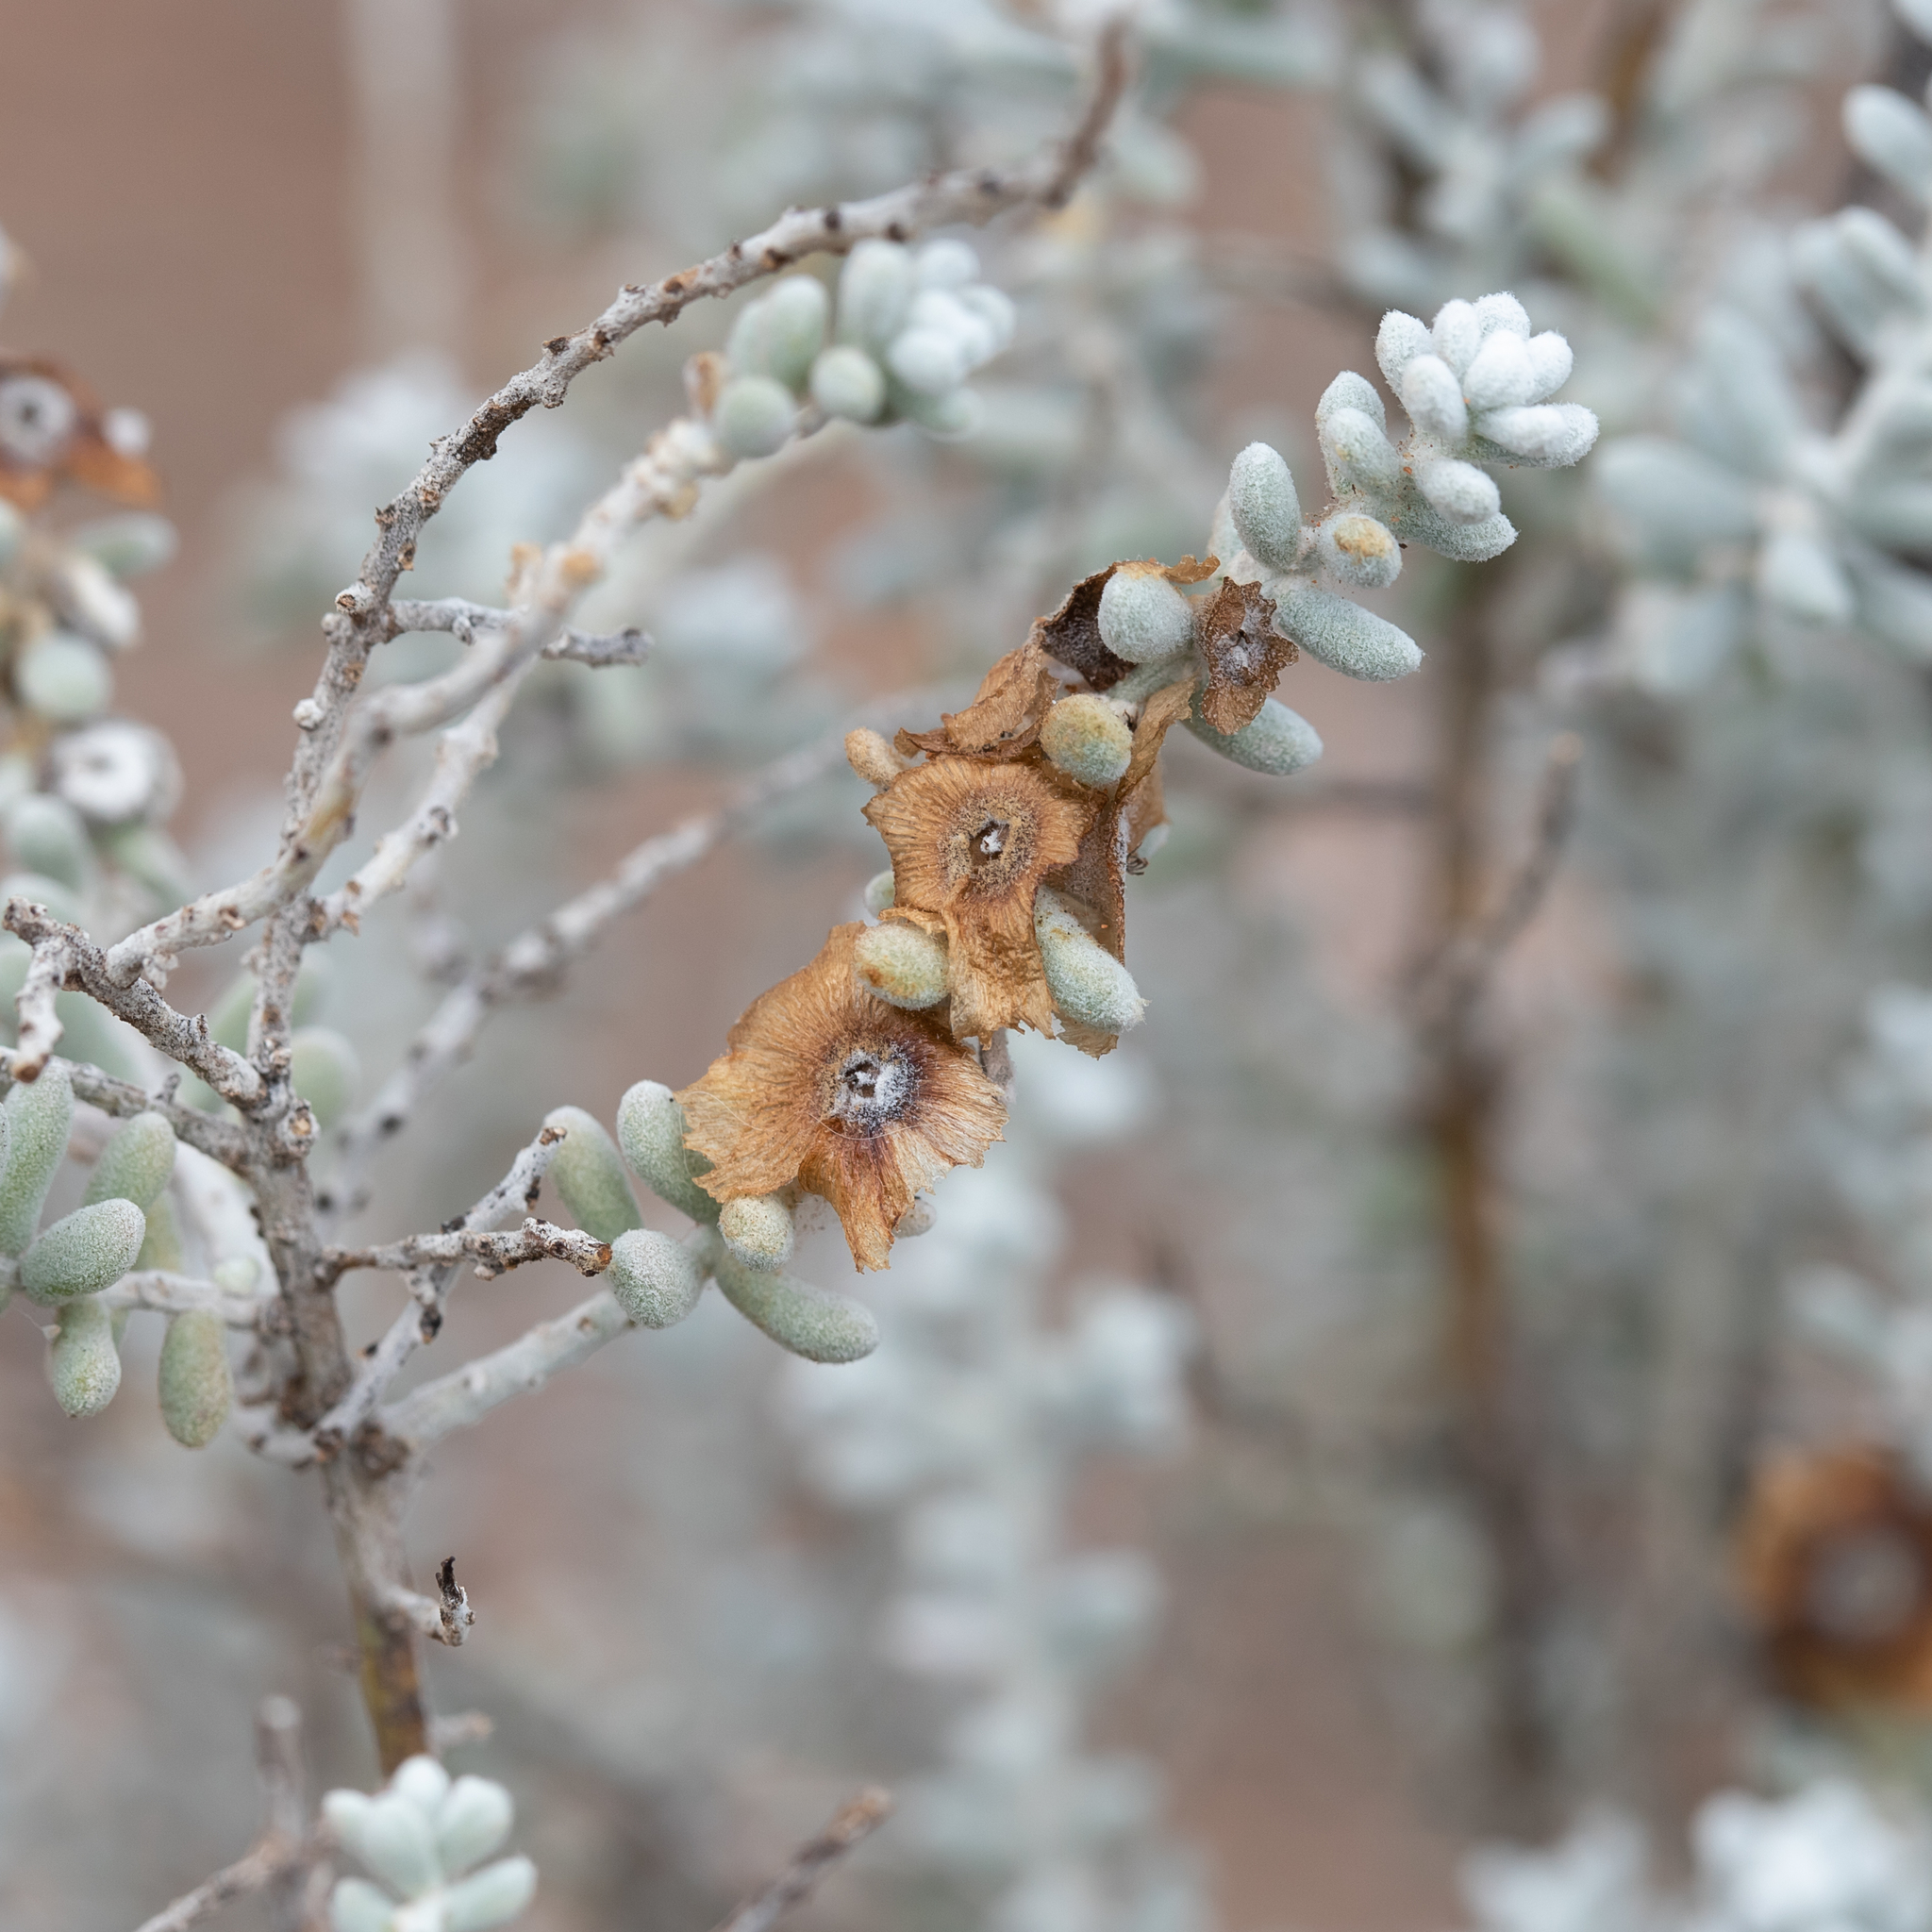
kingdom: Plantae
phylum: Tracheophyta
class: Magnoliopsida
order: Caryophyllales
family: Amaranthaceae
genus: Maireana
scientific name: Maireana sedifolia
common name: Hoary bluebush
